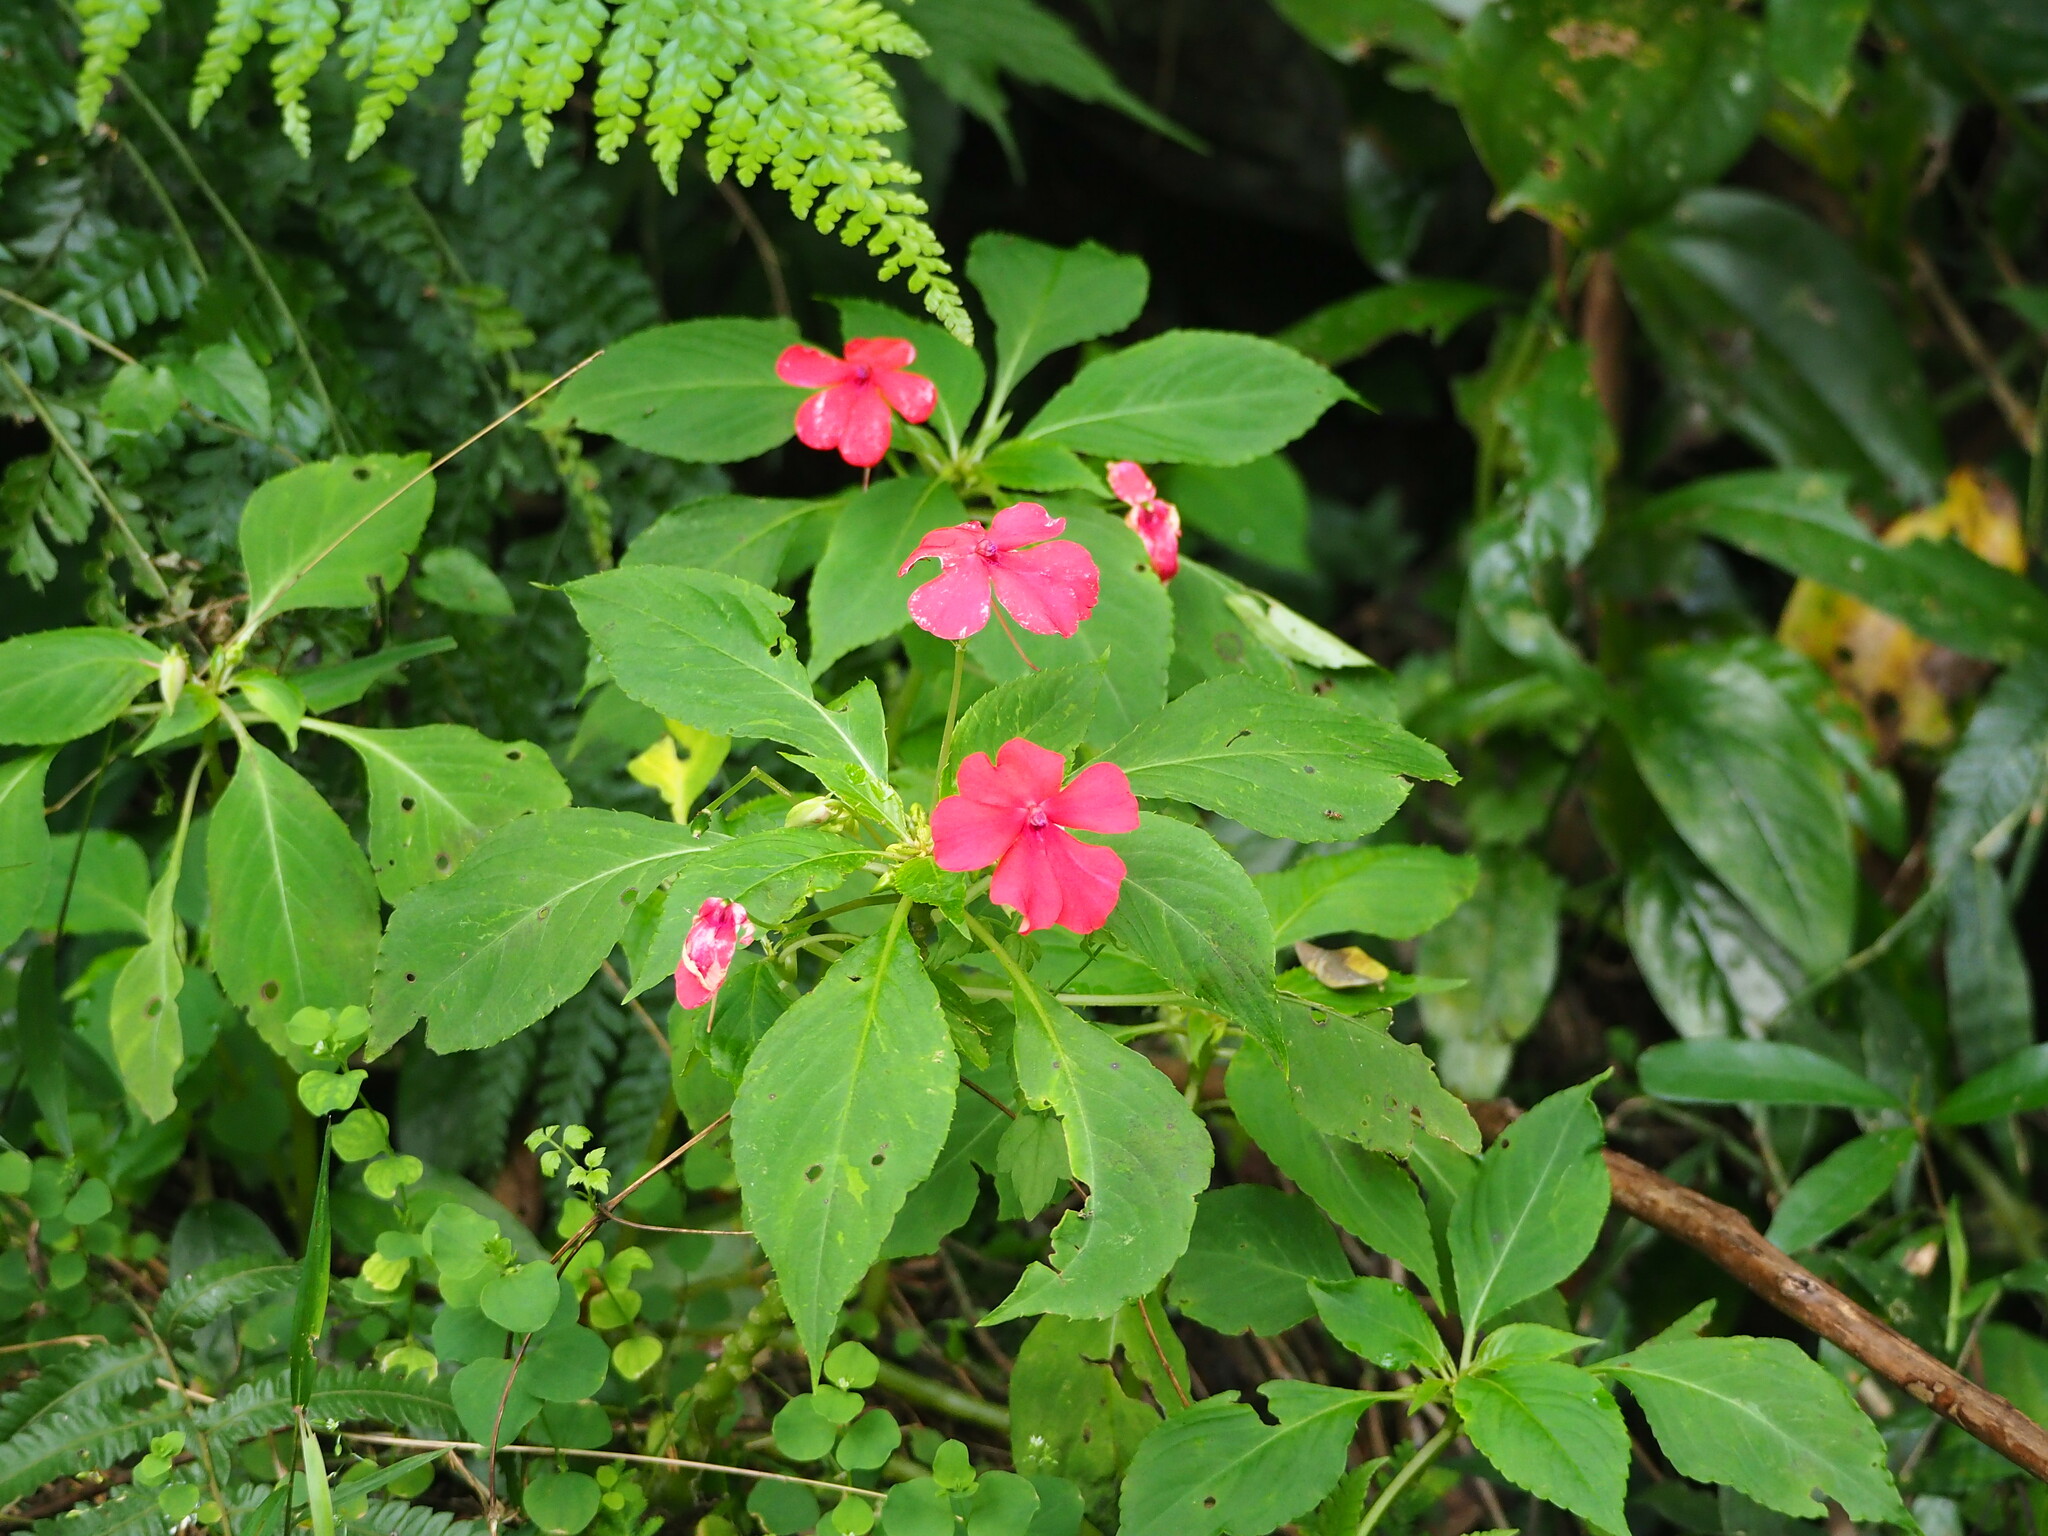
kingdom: Plantae
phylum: Tracheophyta
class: Magnoliopsida
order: Ericales
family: Balsaminaceae
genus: Impatiens
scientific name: Impatiens walleriana
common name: Buzzy lizzy
